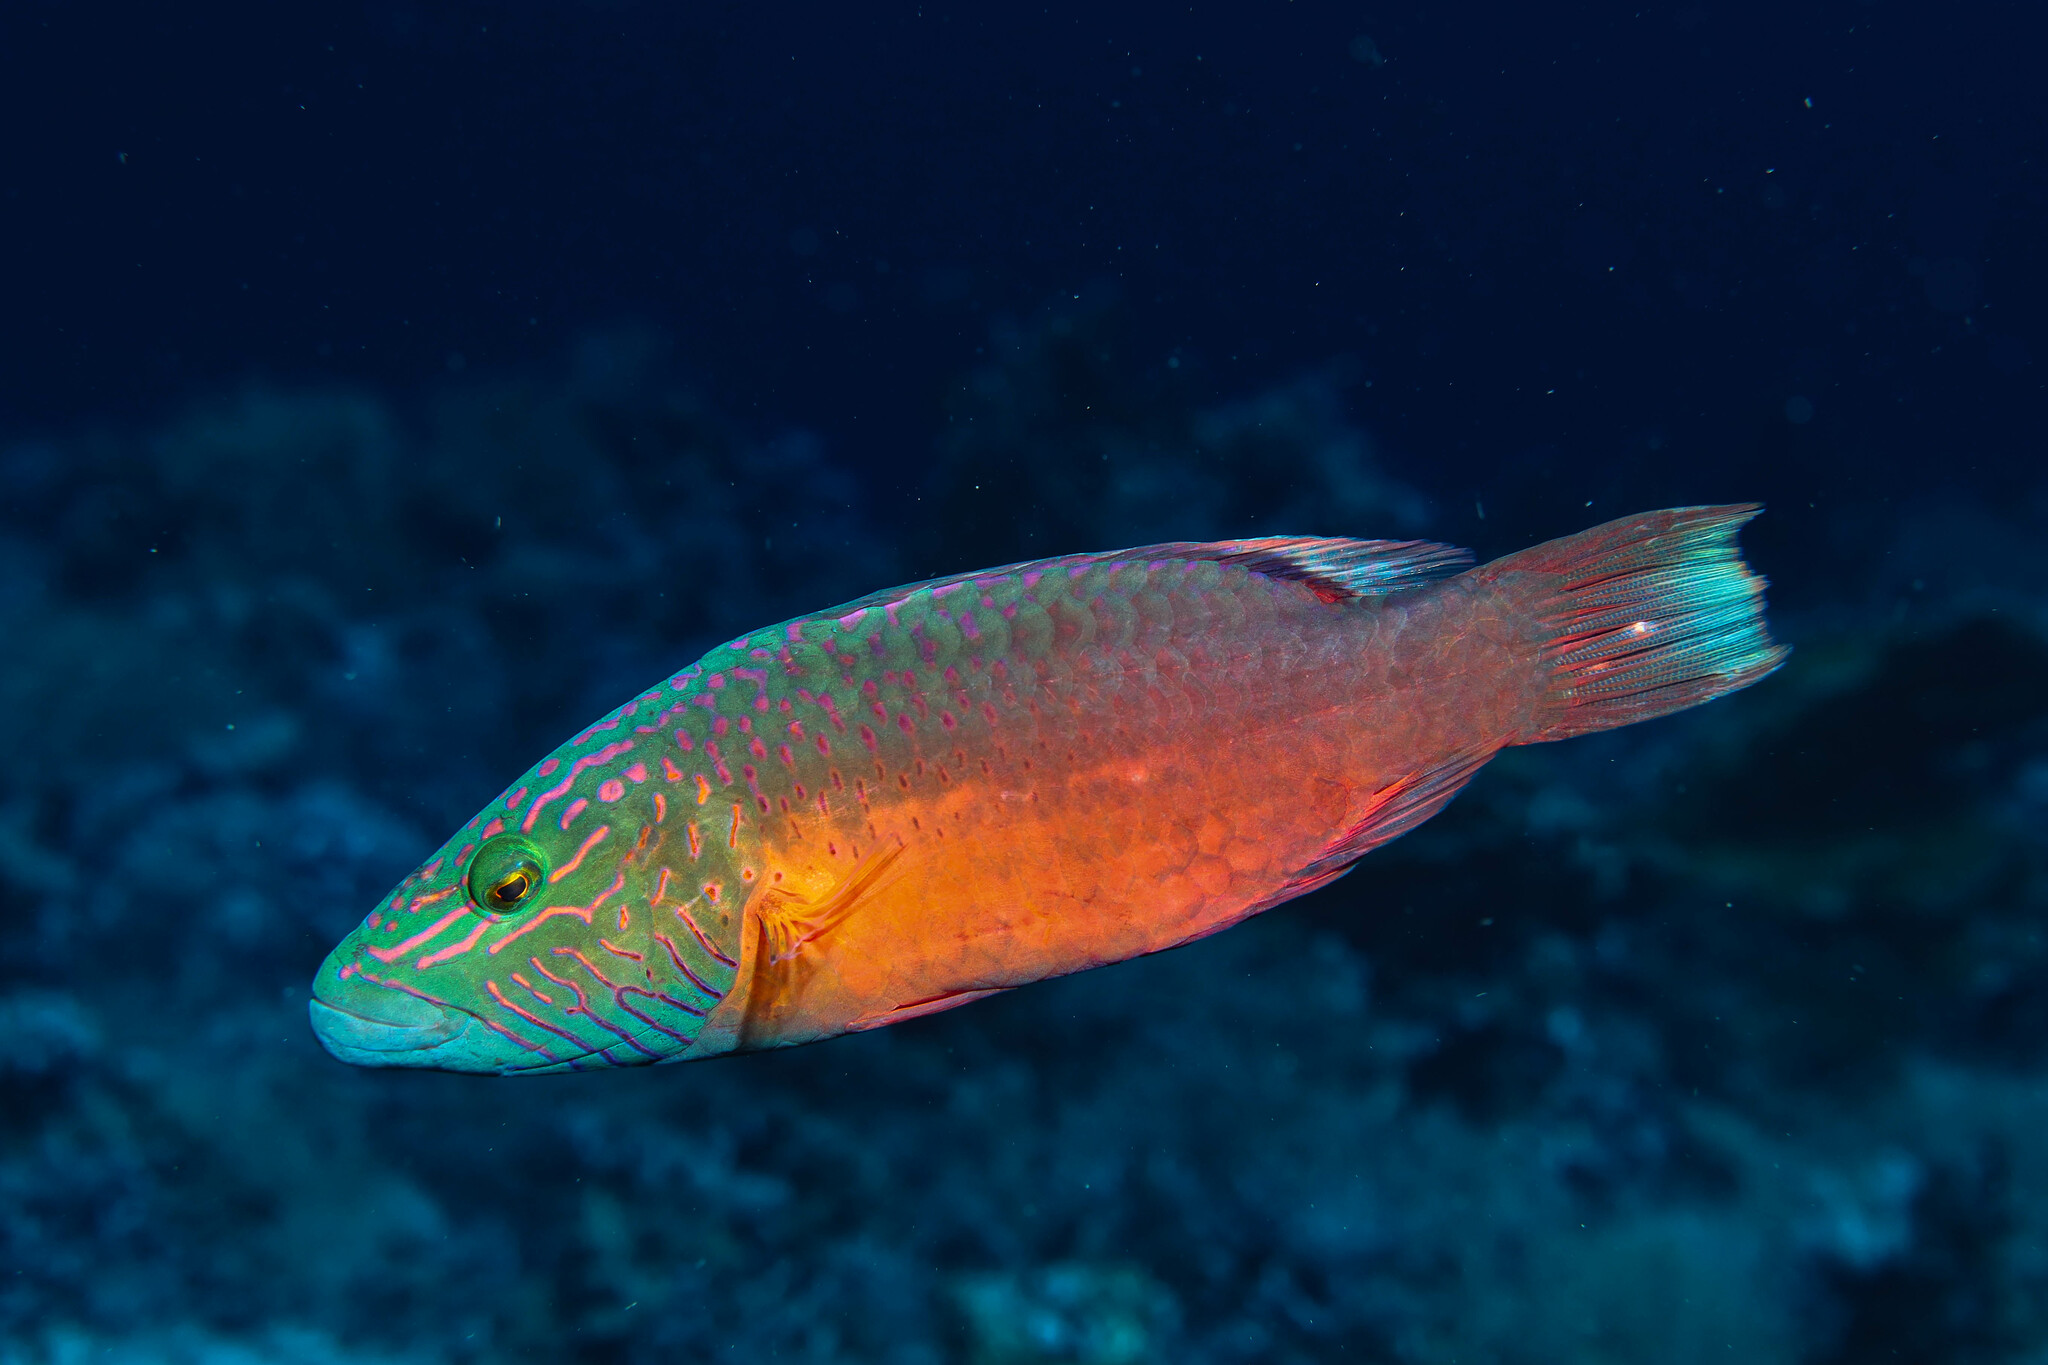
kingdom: Animalia
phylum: Chordata
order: Perciformes
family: Labridae
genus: Oxycheilinus
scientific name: Oxycheilinus digramma
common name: Bandcheek wrasse
